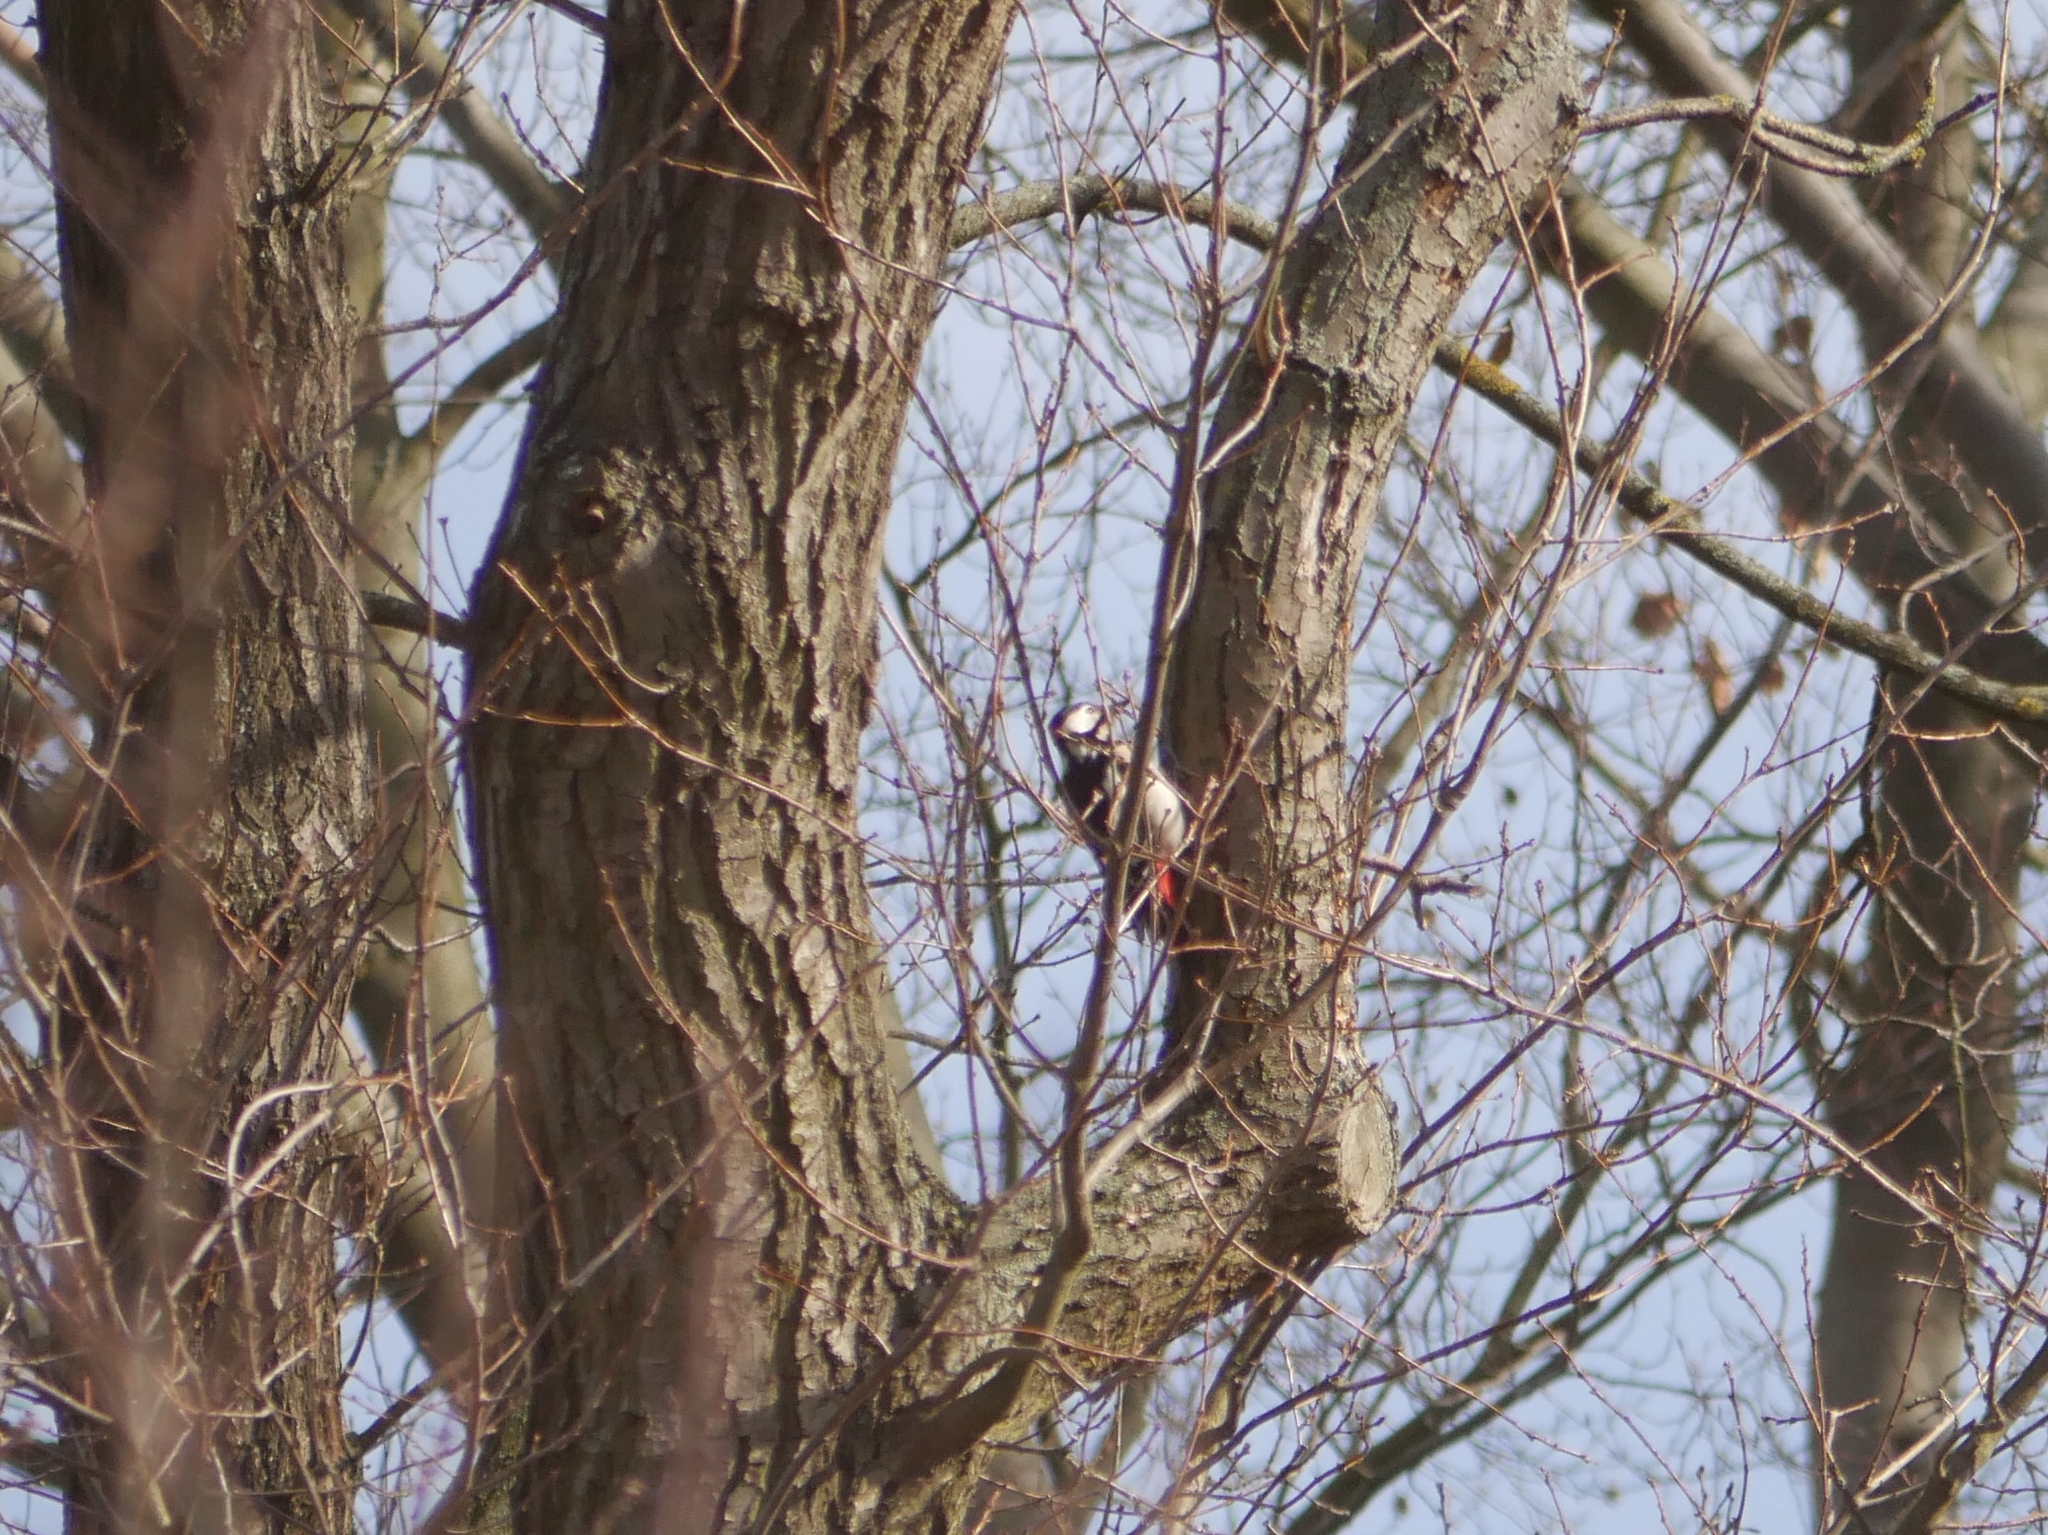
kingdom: Animalia
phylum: Chordata
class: Aves
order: Piciformes
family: Picidae
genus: Dendrocopos
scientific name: Dendrocopos major
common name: Great spotted woodpecker
